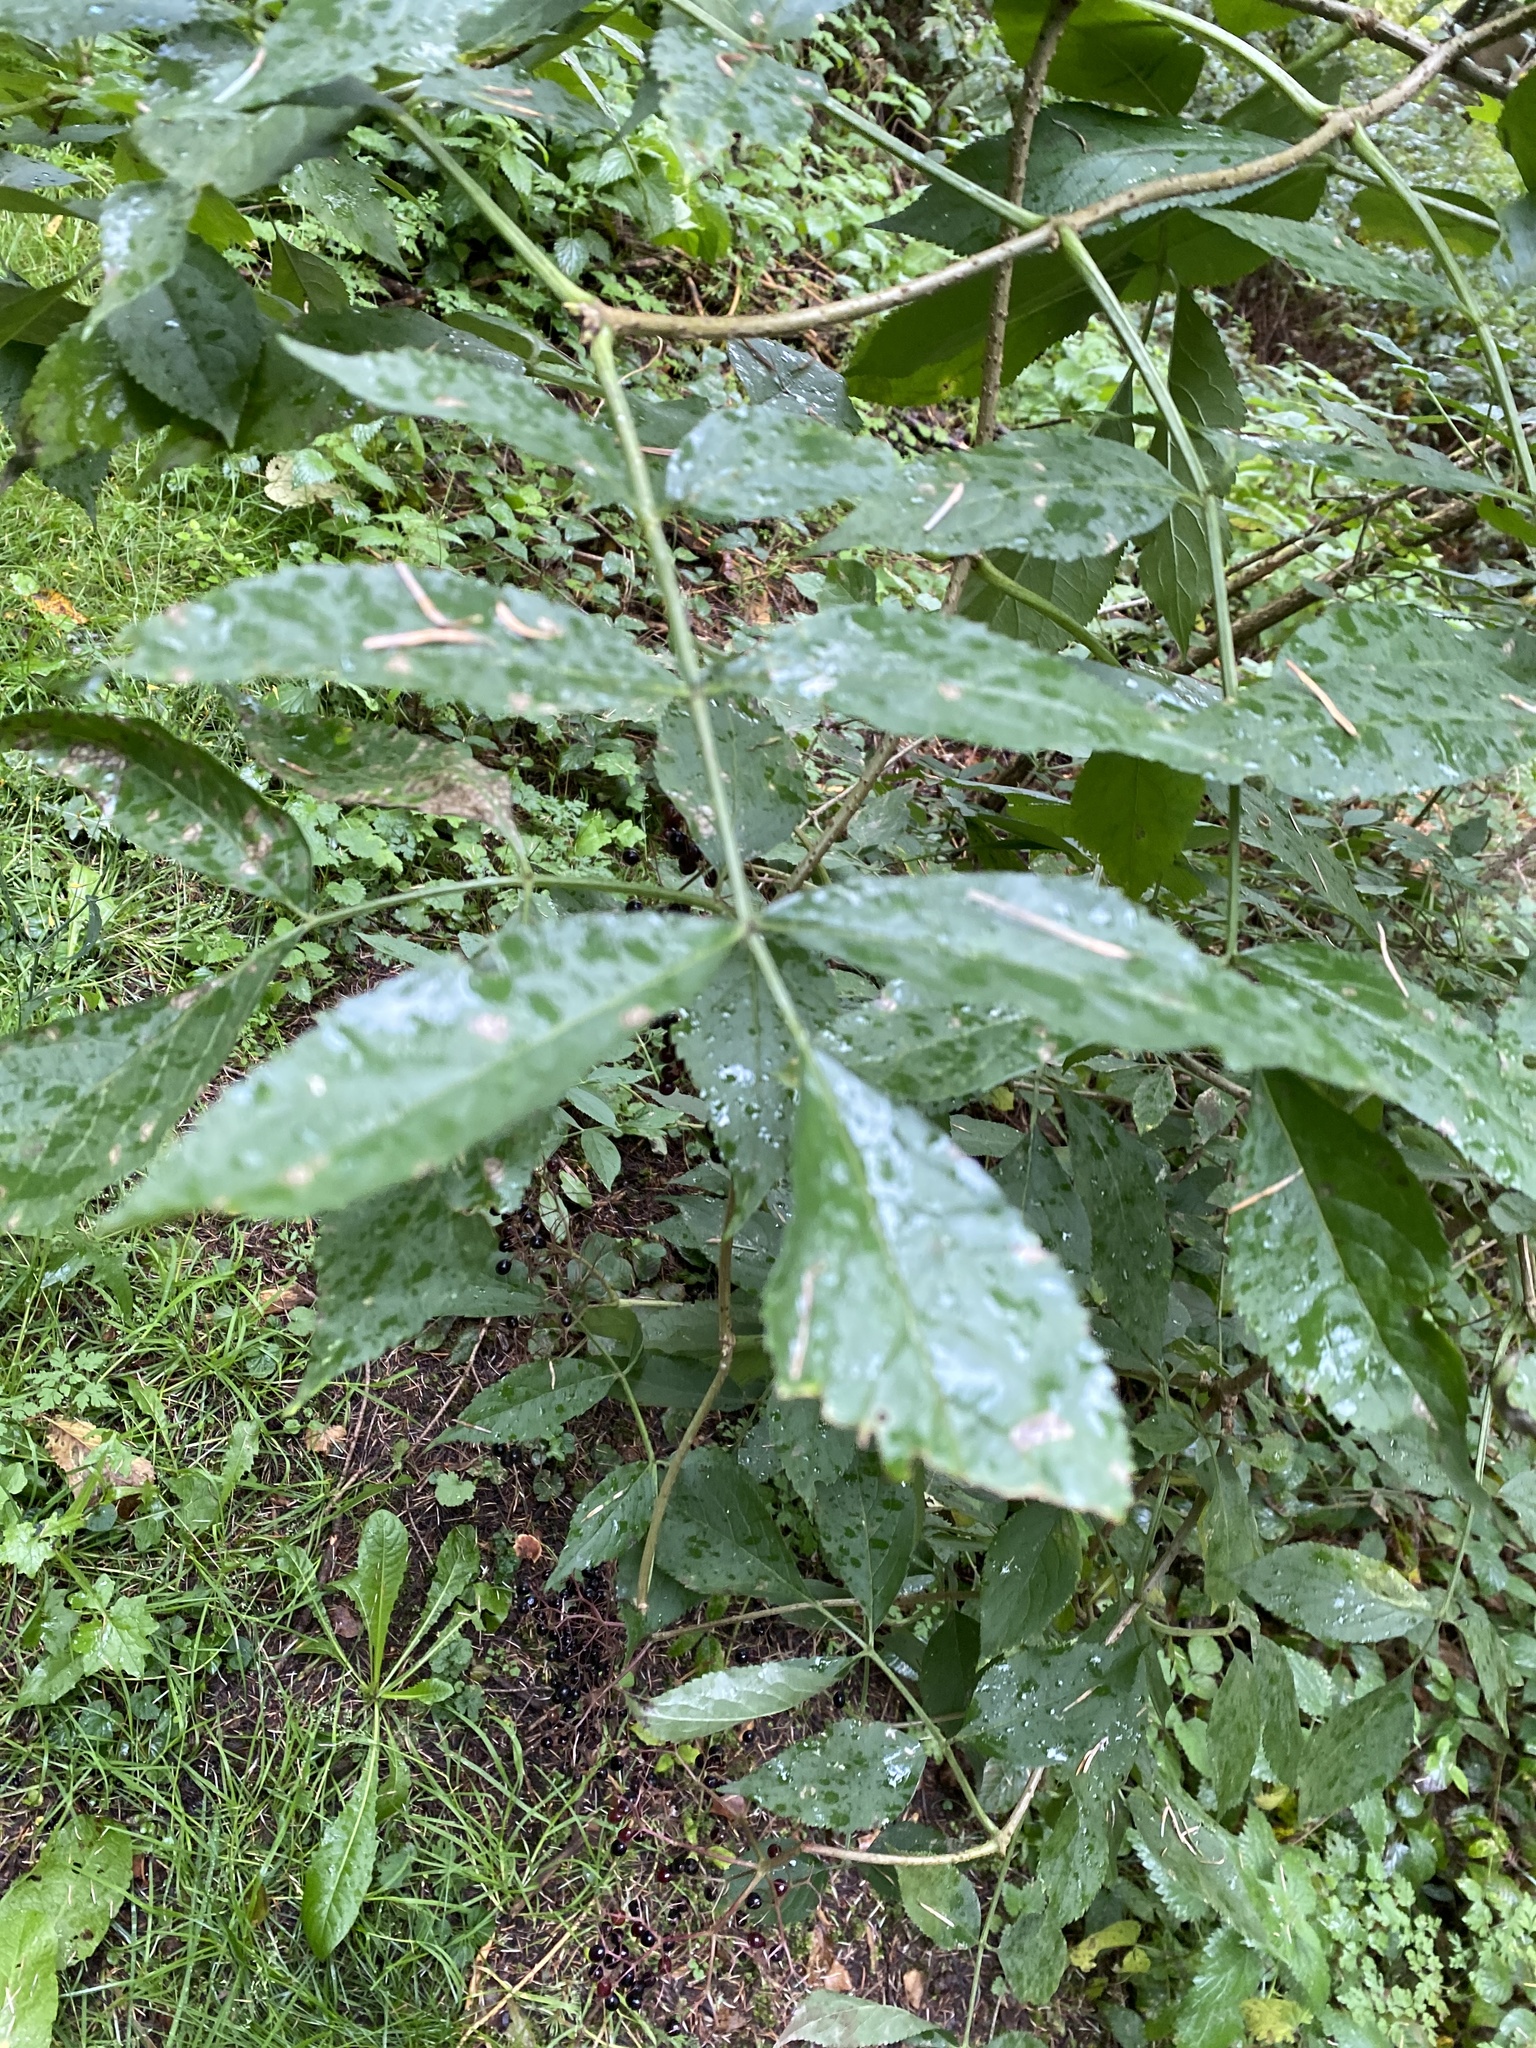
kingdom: Plantae
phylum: Tracheophyta
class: Magnoliopsida
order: Dipsacales
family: Viburnaceae
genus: Sambucus
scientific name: Sambucus nigra
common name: Elder
